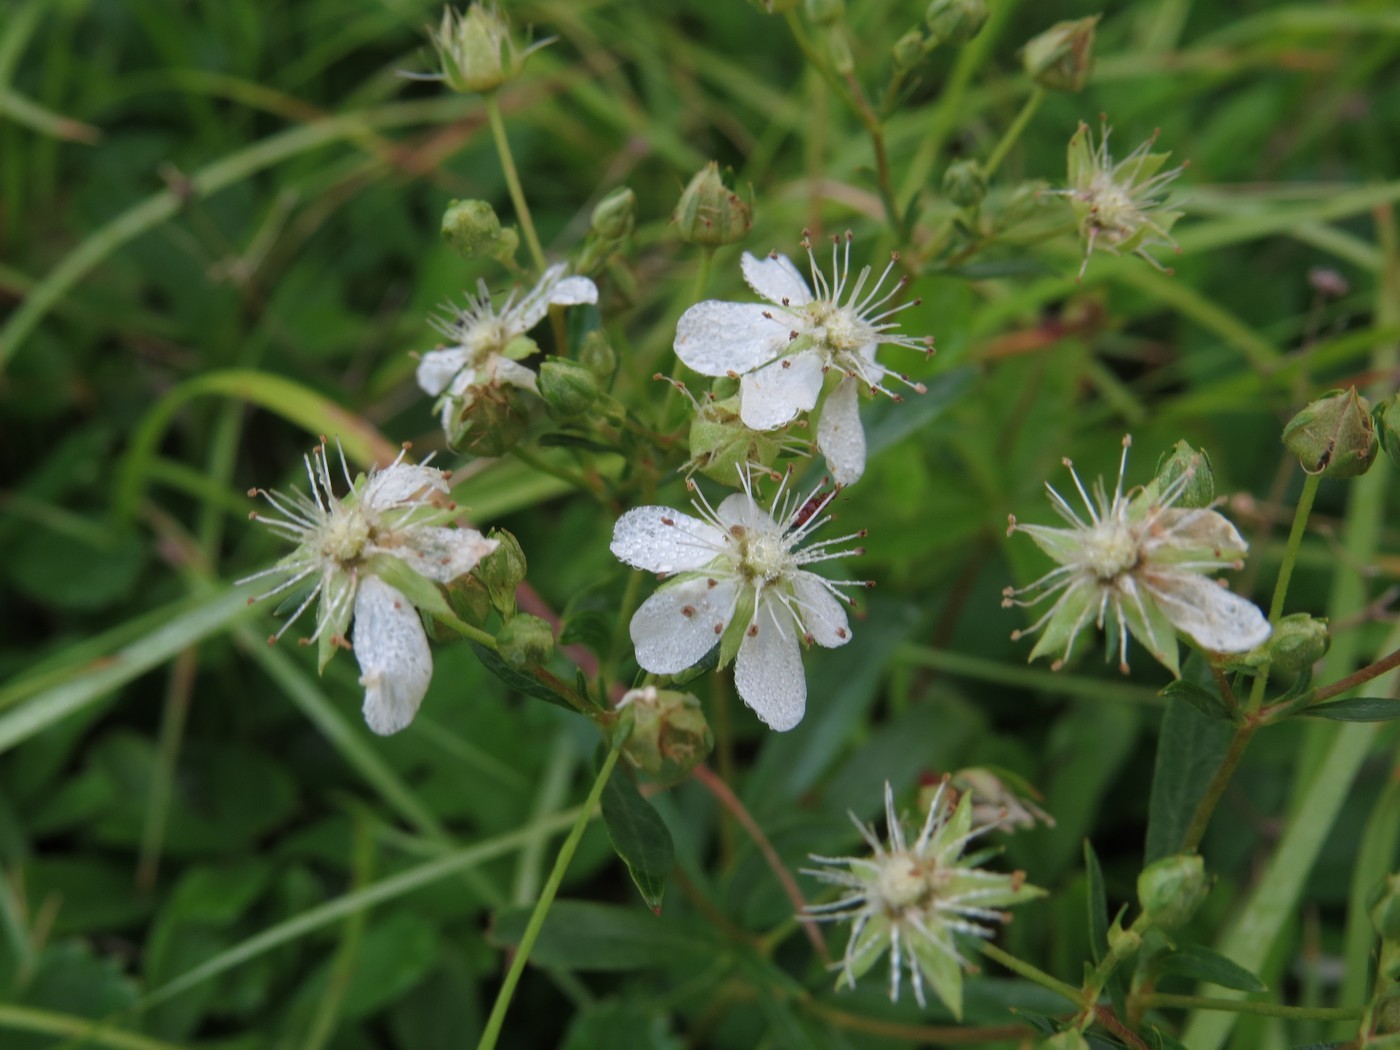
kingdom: Plantae
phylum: Tracheophyta
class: Magnoliopsida
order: Rosales
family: Rosaceae
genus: Sibbaldia
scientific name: Sibbaldia tridentata
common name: Three-toothed cinquefoil
